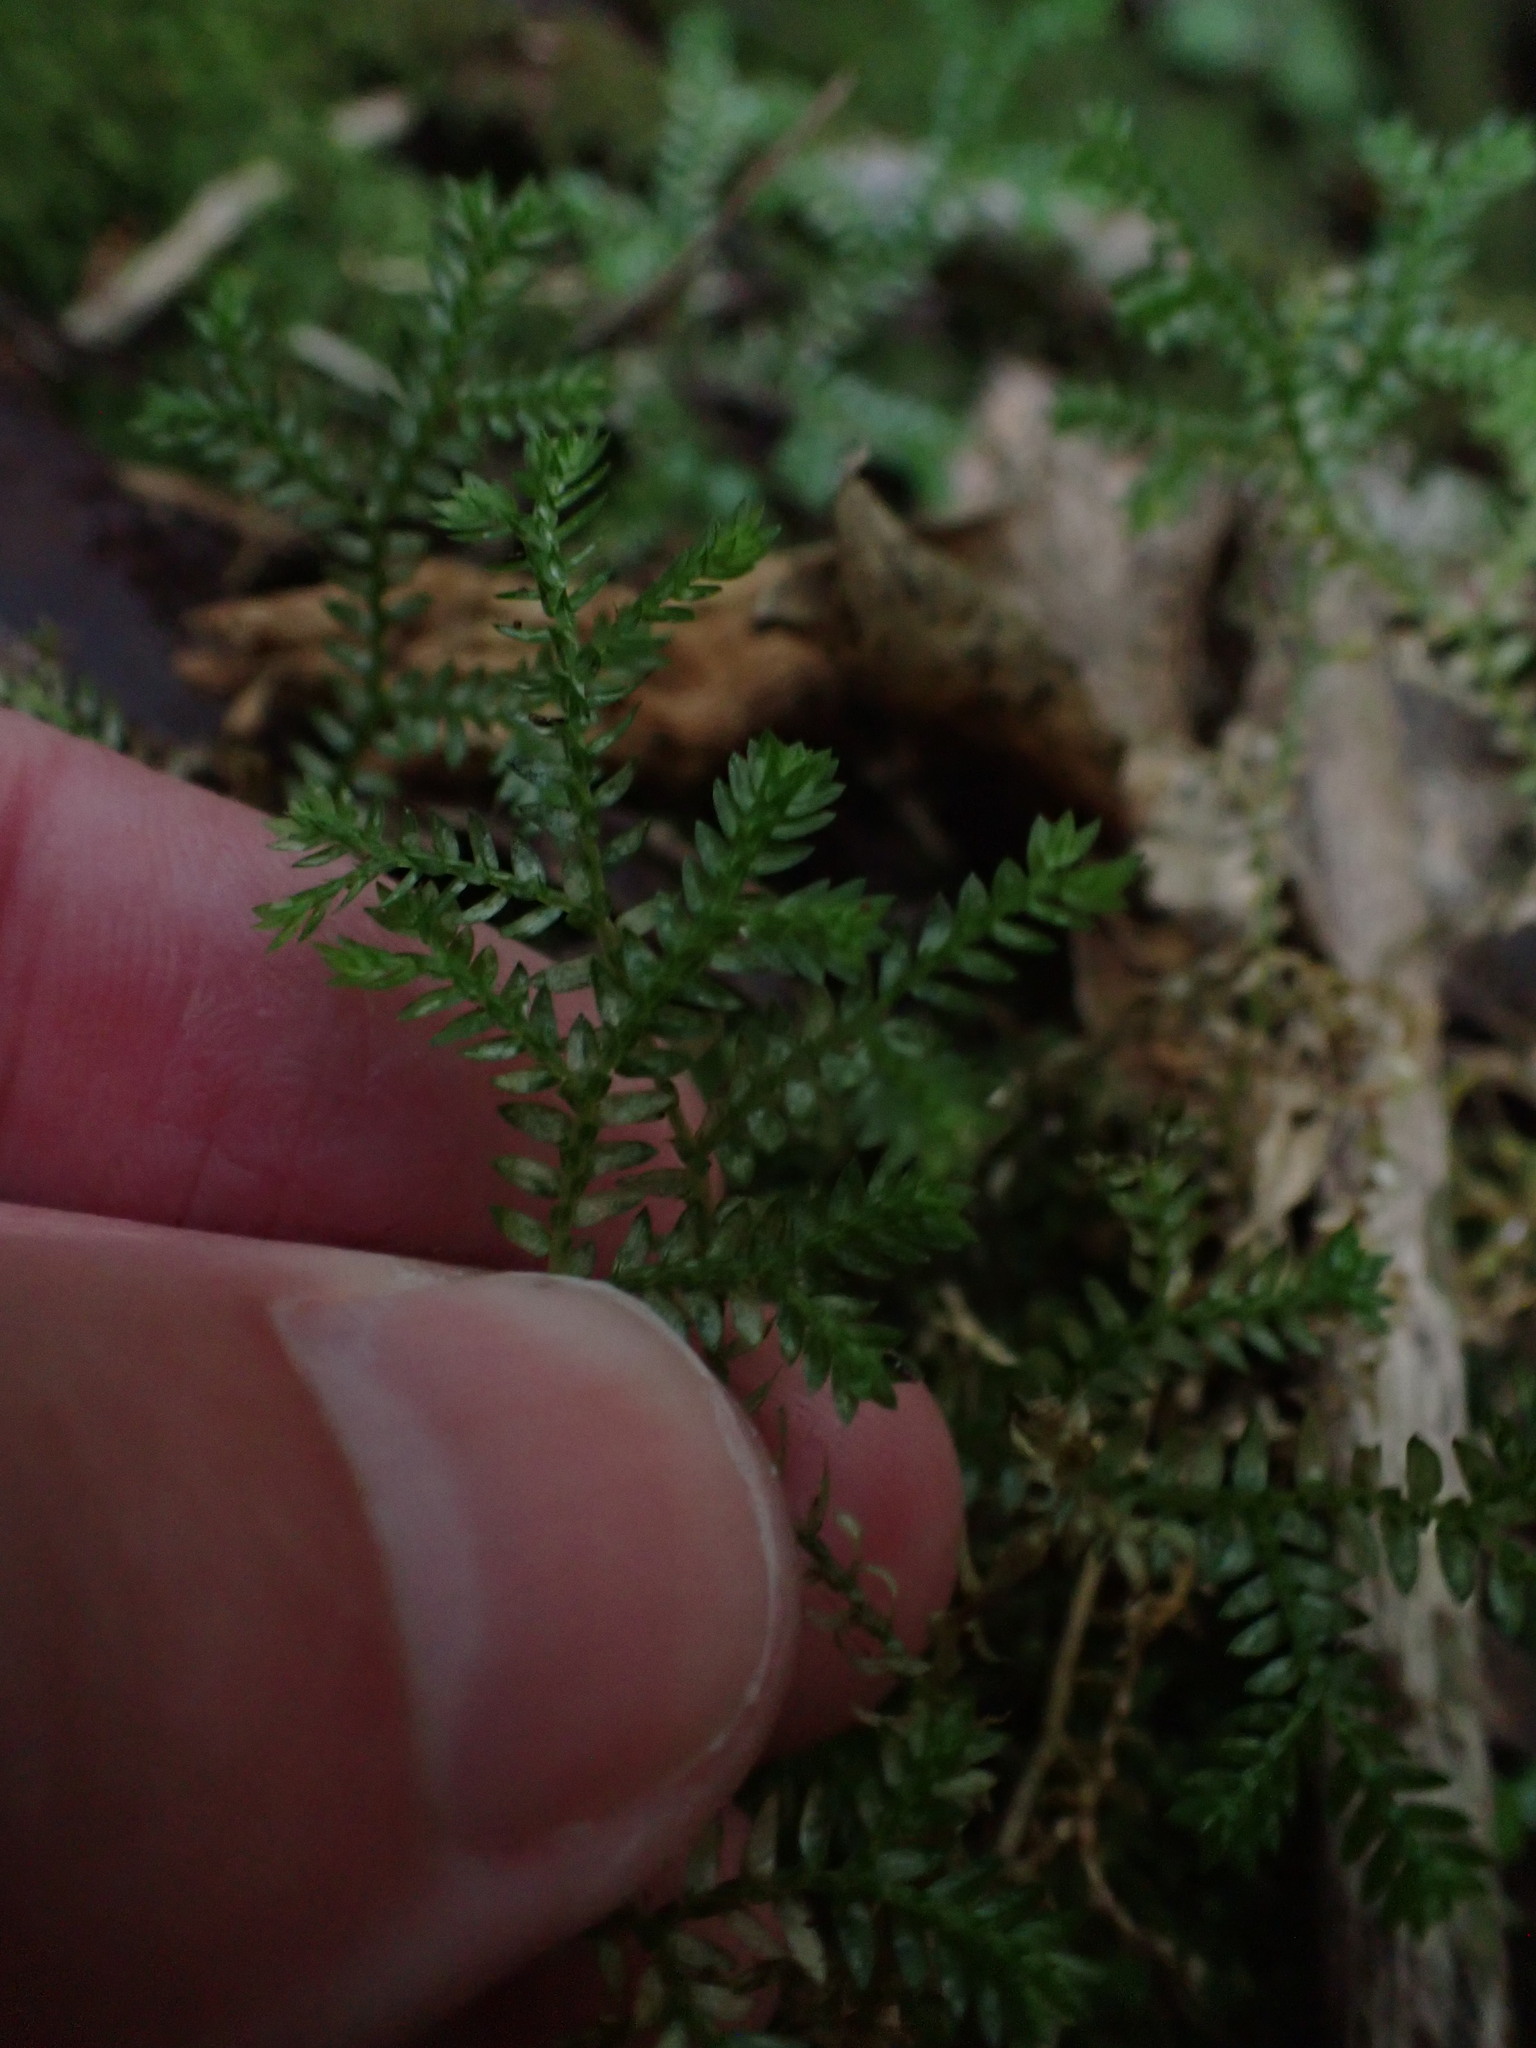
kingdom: Plantae
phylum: Tracheophyta
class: Lycopodiopsida
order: Selaginellales
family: Selaginellaceae
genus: Selaginella
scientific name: Selaginella kraussiana
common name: Krauss' spikemoss
